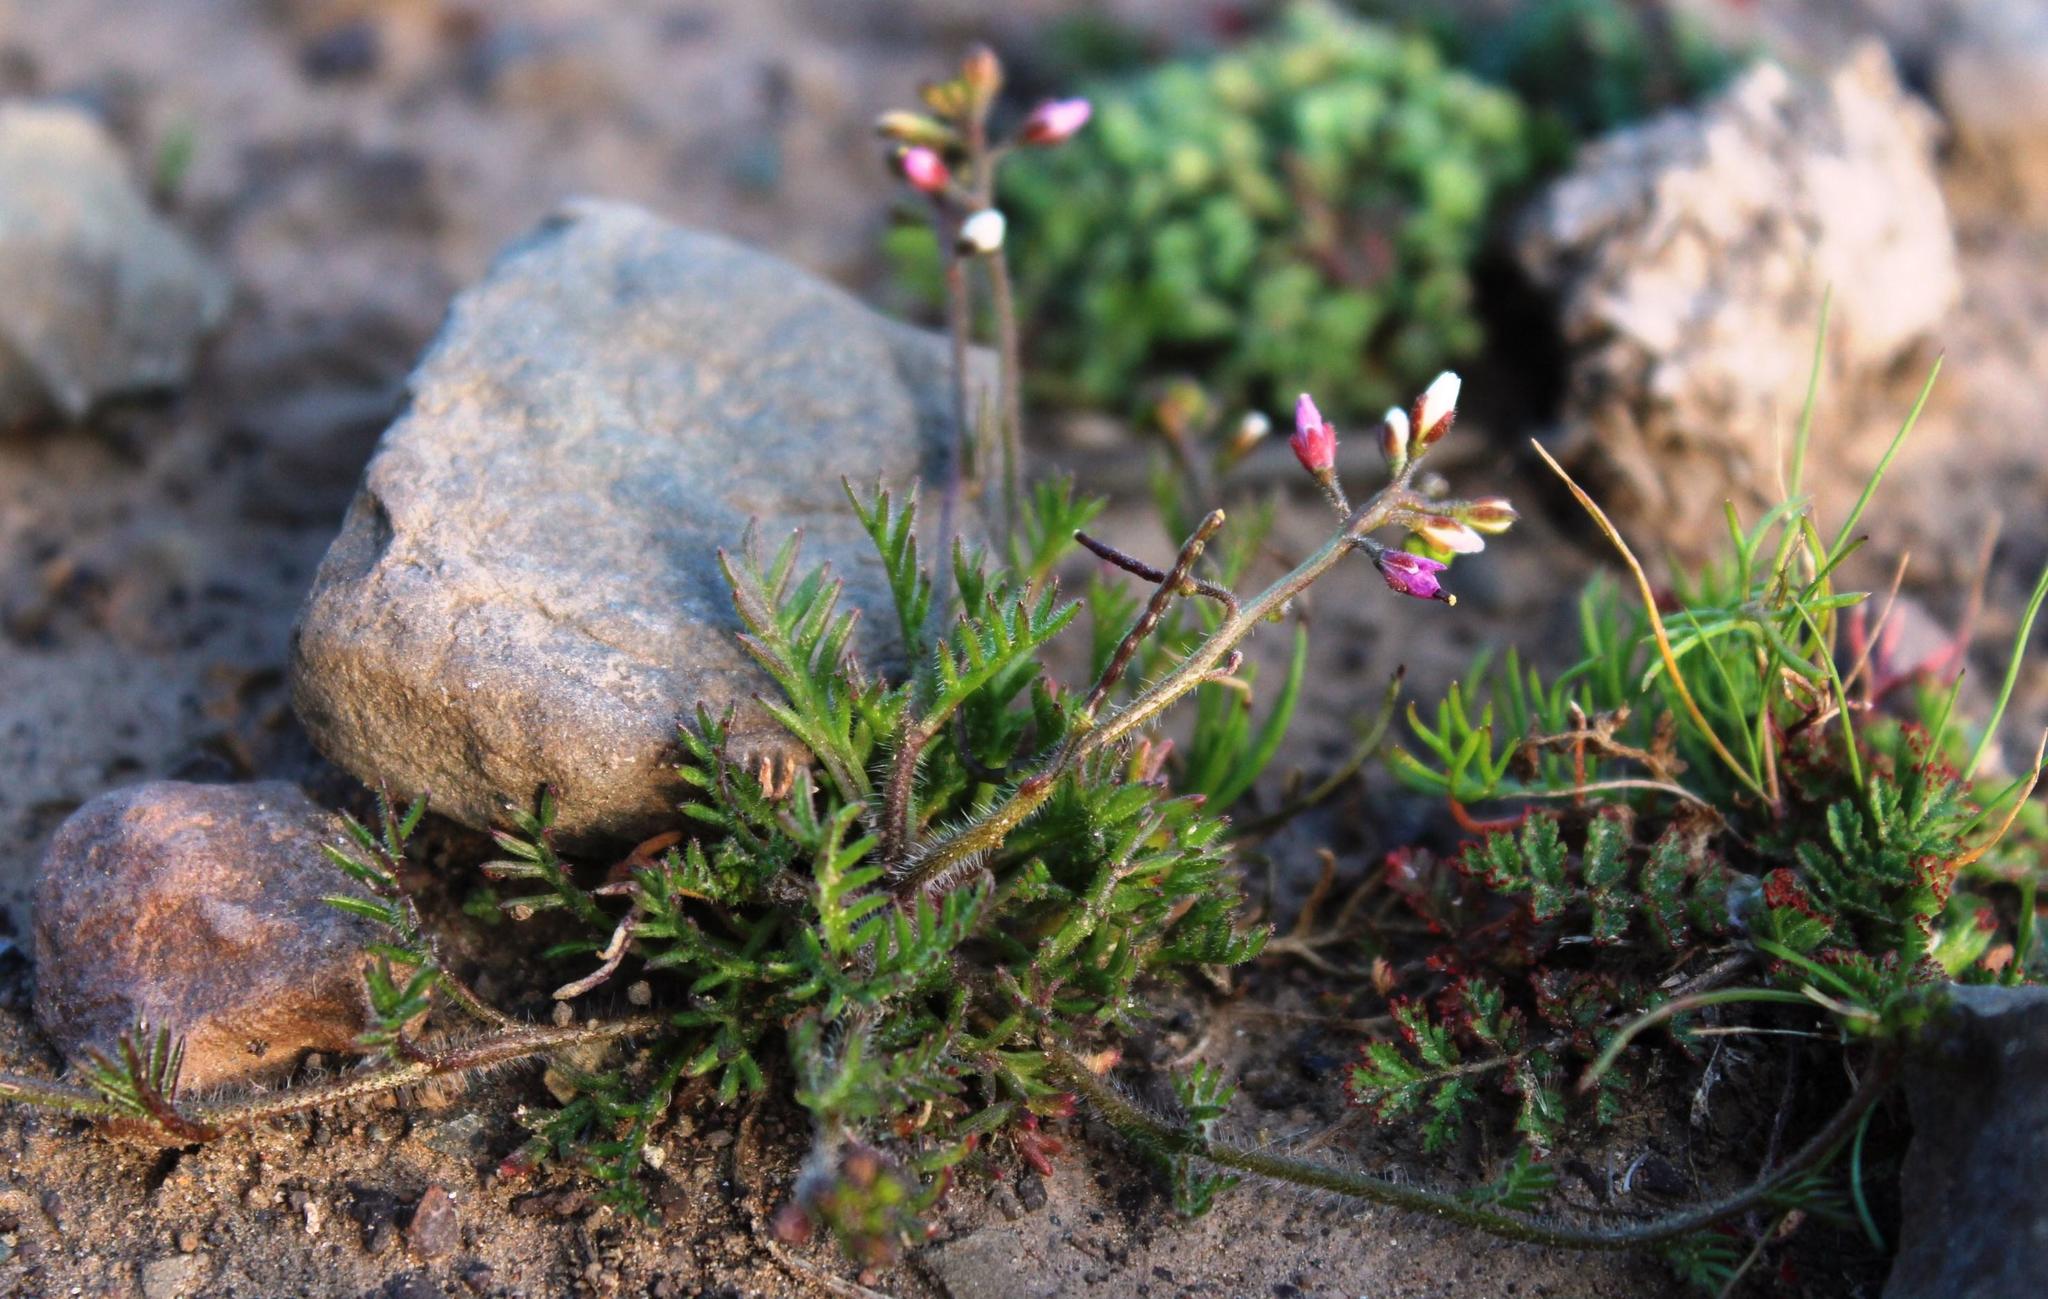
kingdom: Plantae
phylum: Tracheophyta
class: Magnoliopsida
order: Brassicales
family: Brassicaceae
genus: Heliophila
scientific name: Heliophila pubescens
